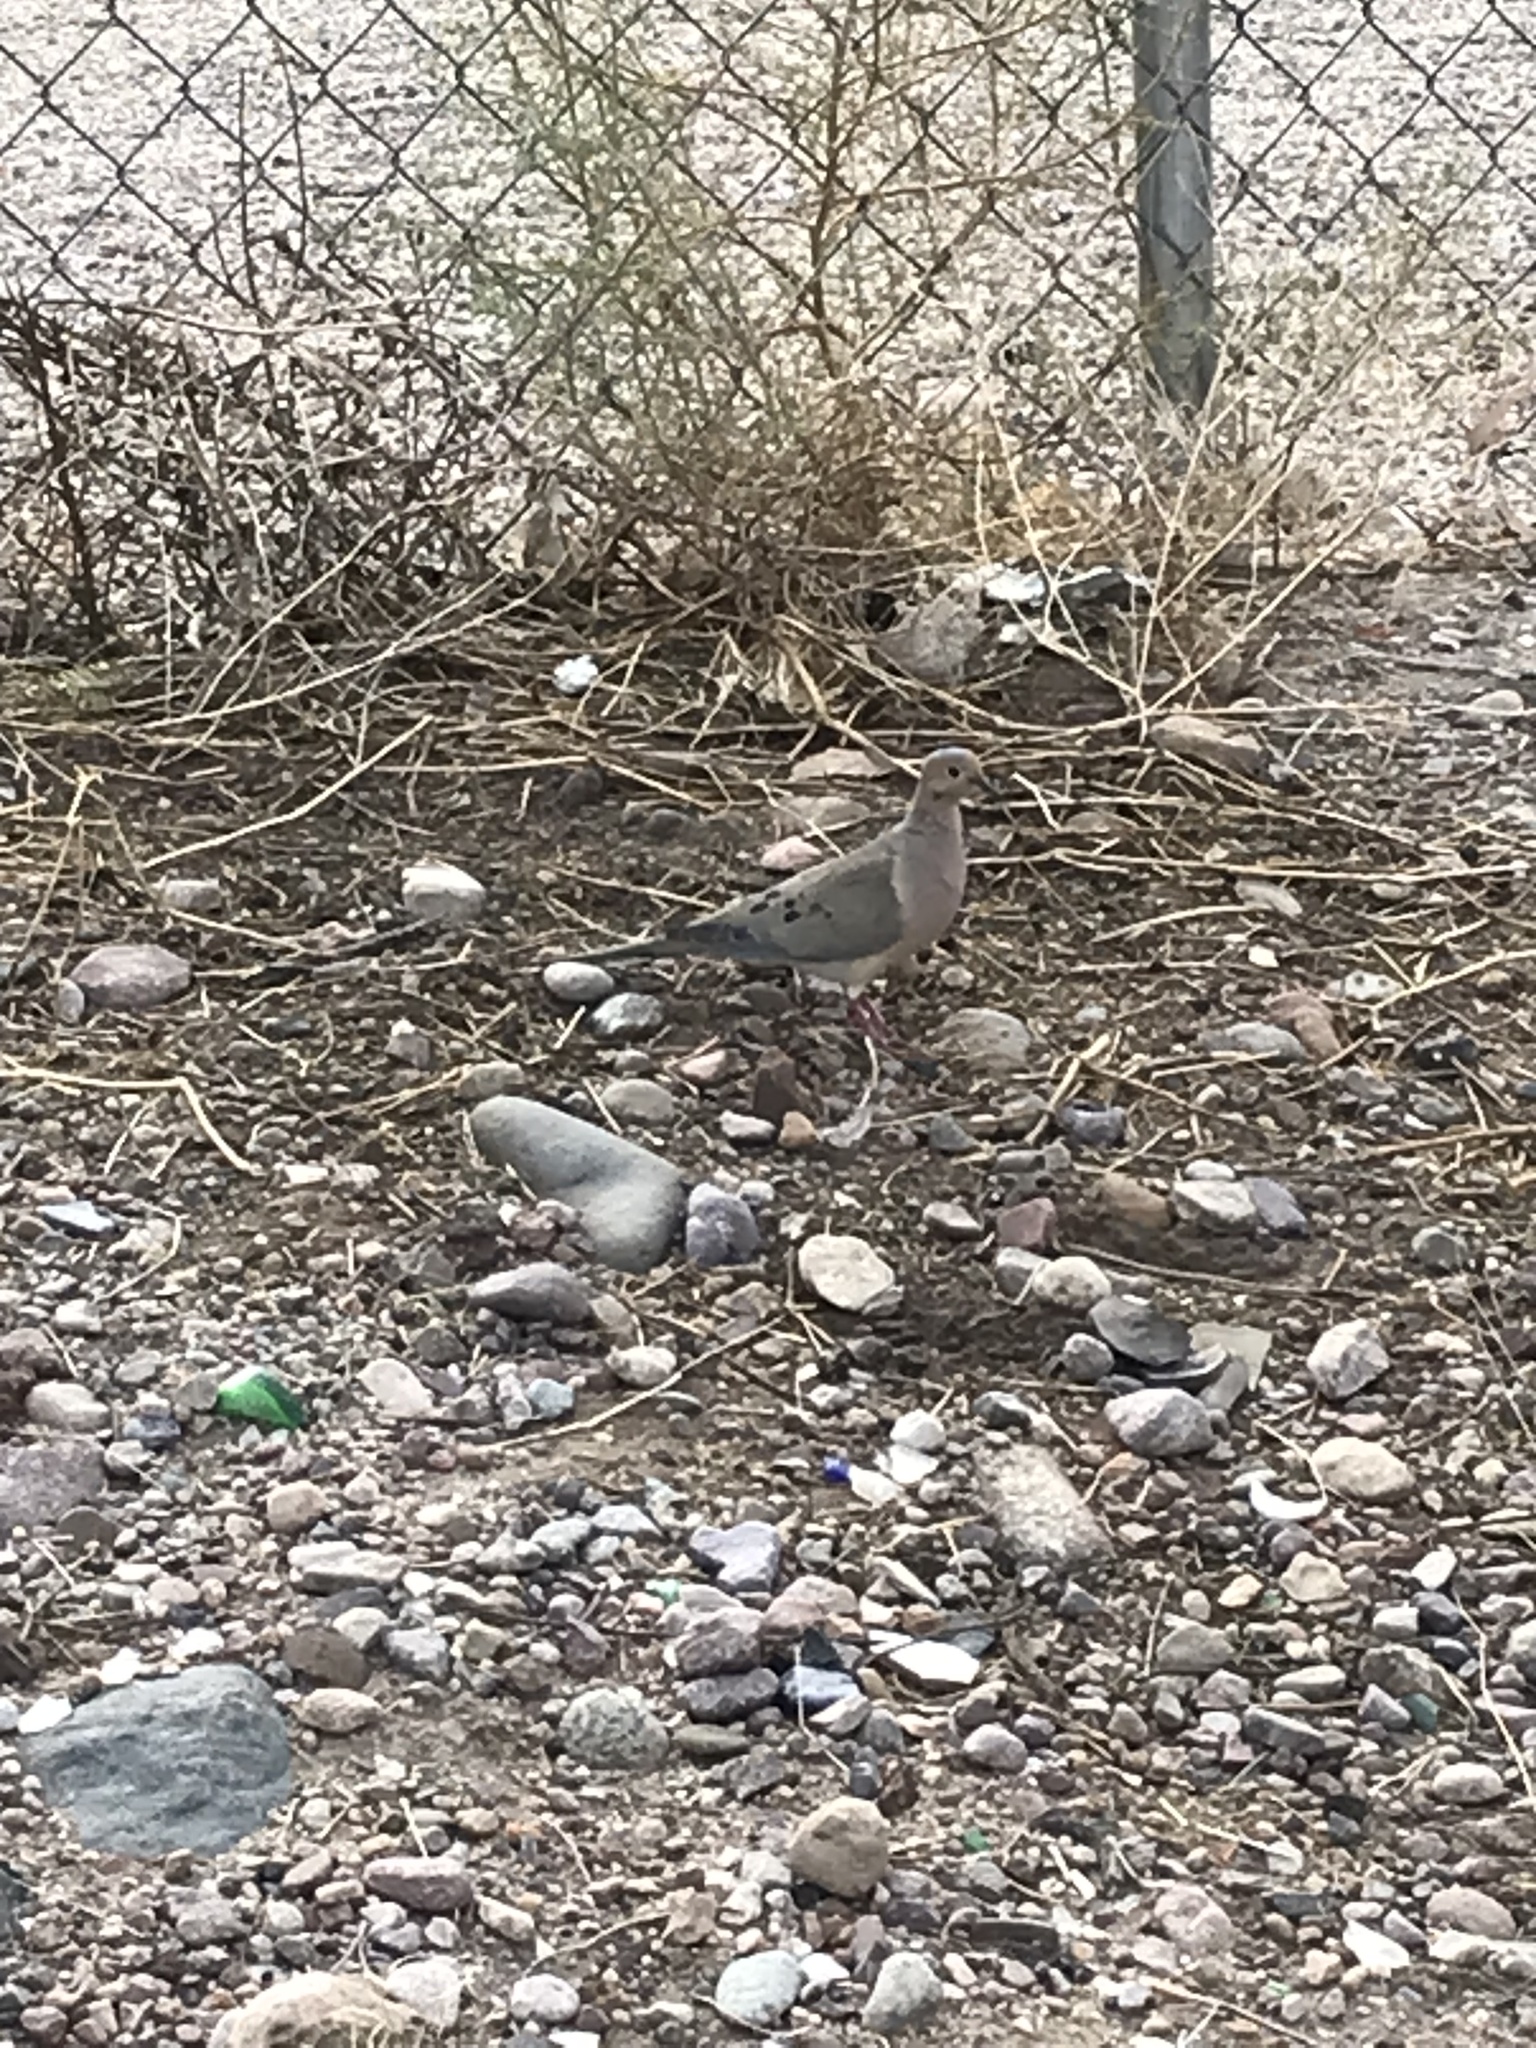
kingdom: Animalia
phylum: Chordata
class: Aves
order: Columbiformes
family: Columbidae
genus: Zenaida
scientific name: Zenaida macroura
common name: Mourning dove
